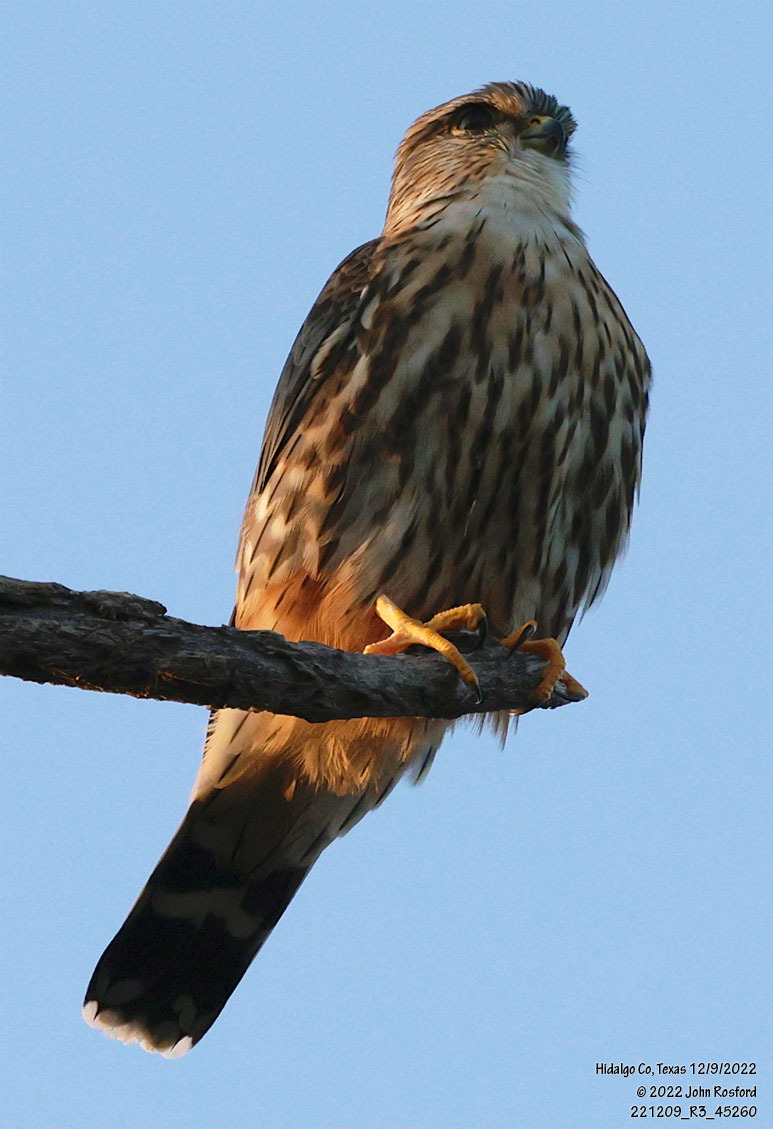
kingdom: Animalia
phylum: Chordata
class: Aves
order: Falconiformes
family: Falconidae
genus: Falco
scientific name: Falco columbarius
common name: Merlin
